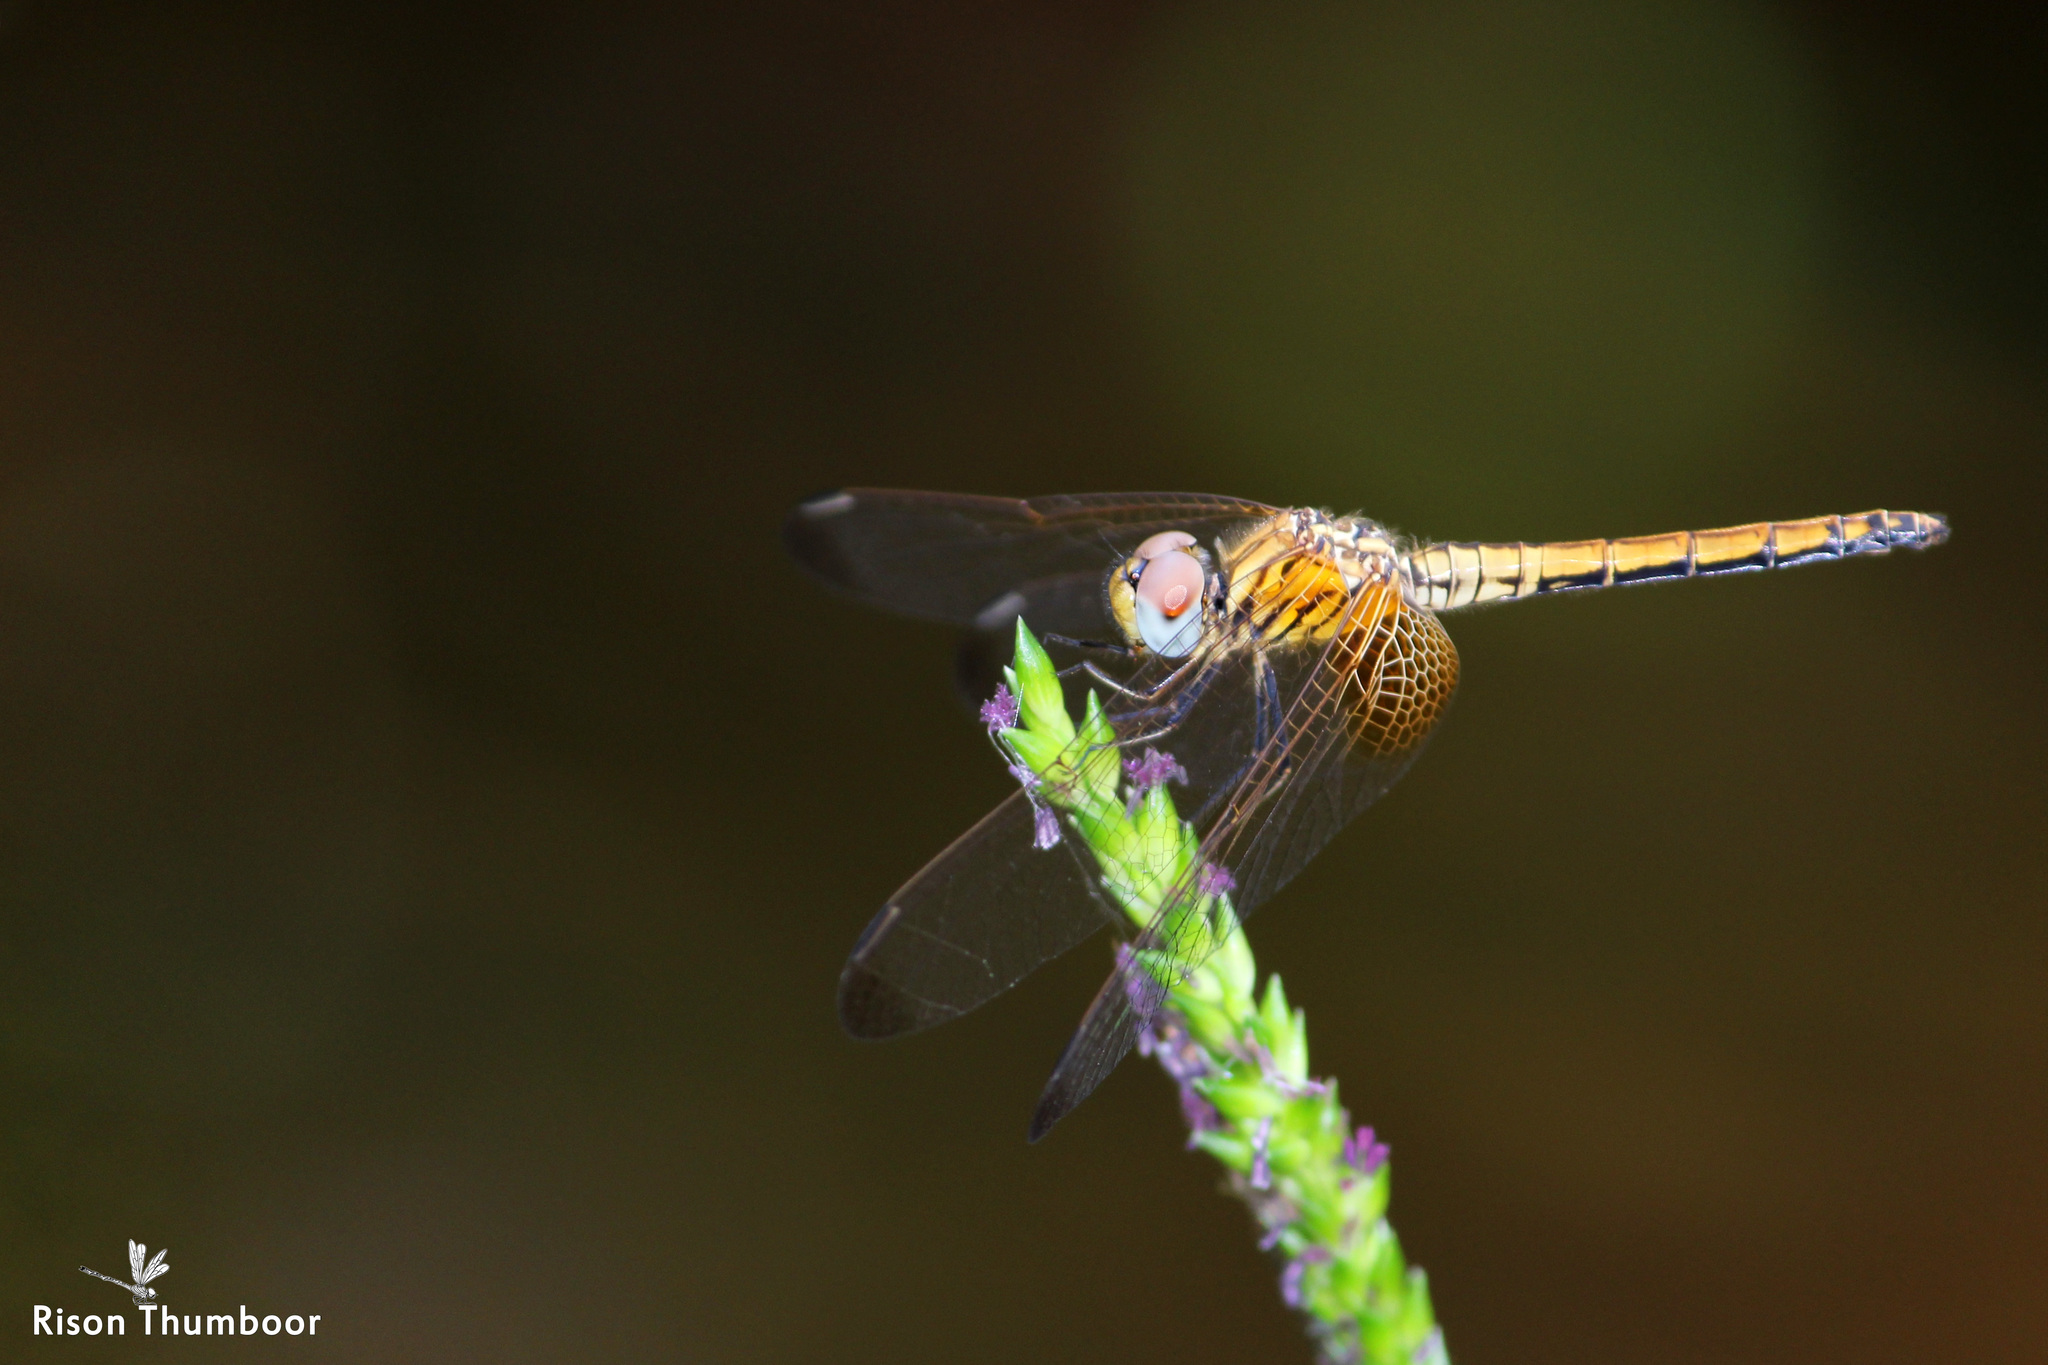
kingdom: Animalia
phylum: Arthropoda
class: Insecta
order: Odonata
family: Libellulidae
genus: Trithemis
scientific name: Trithemis aurora
